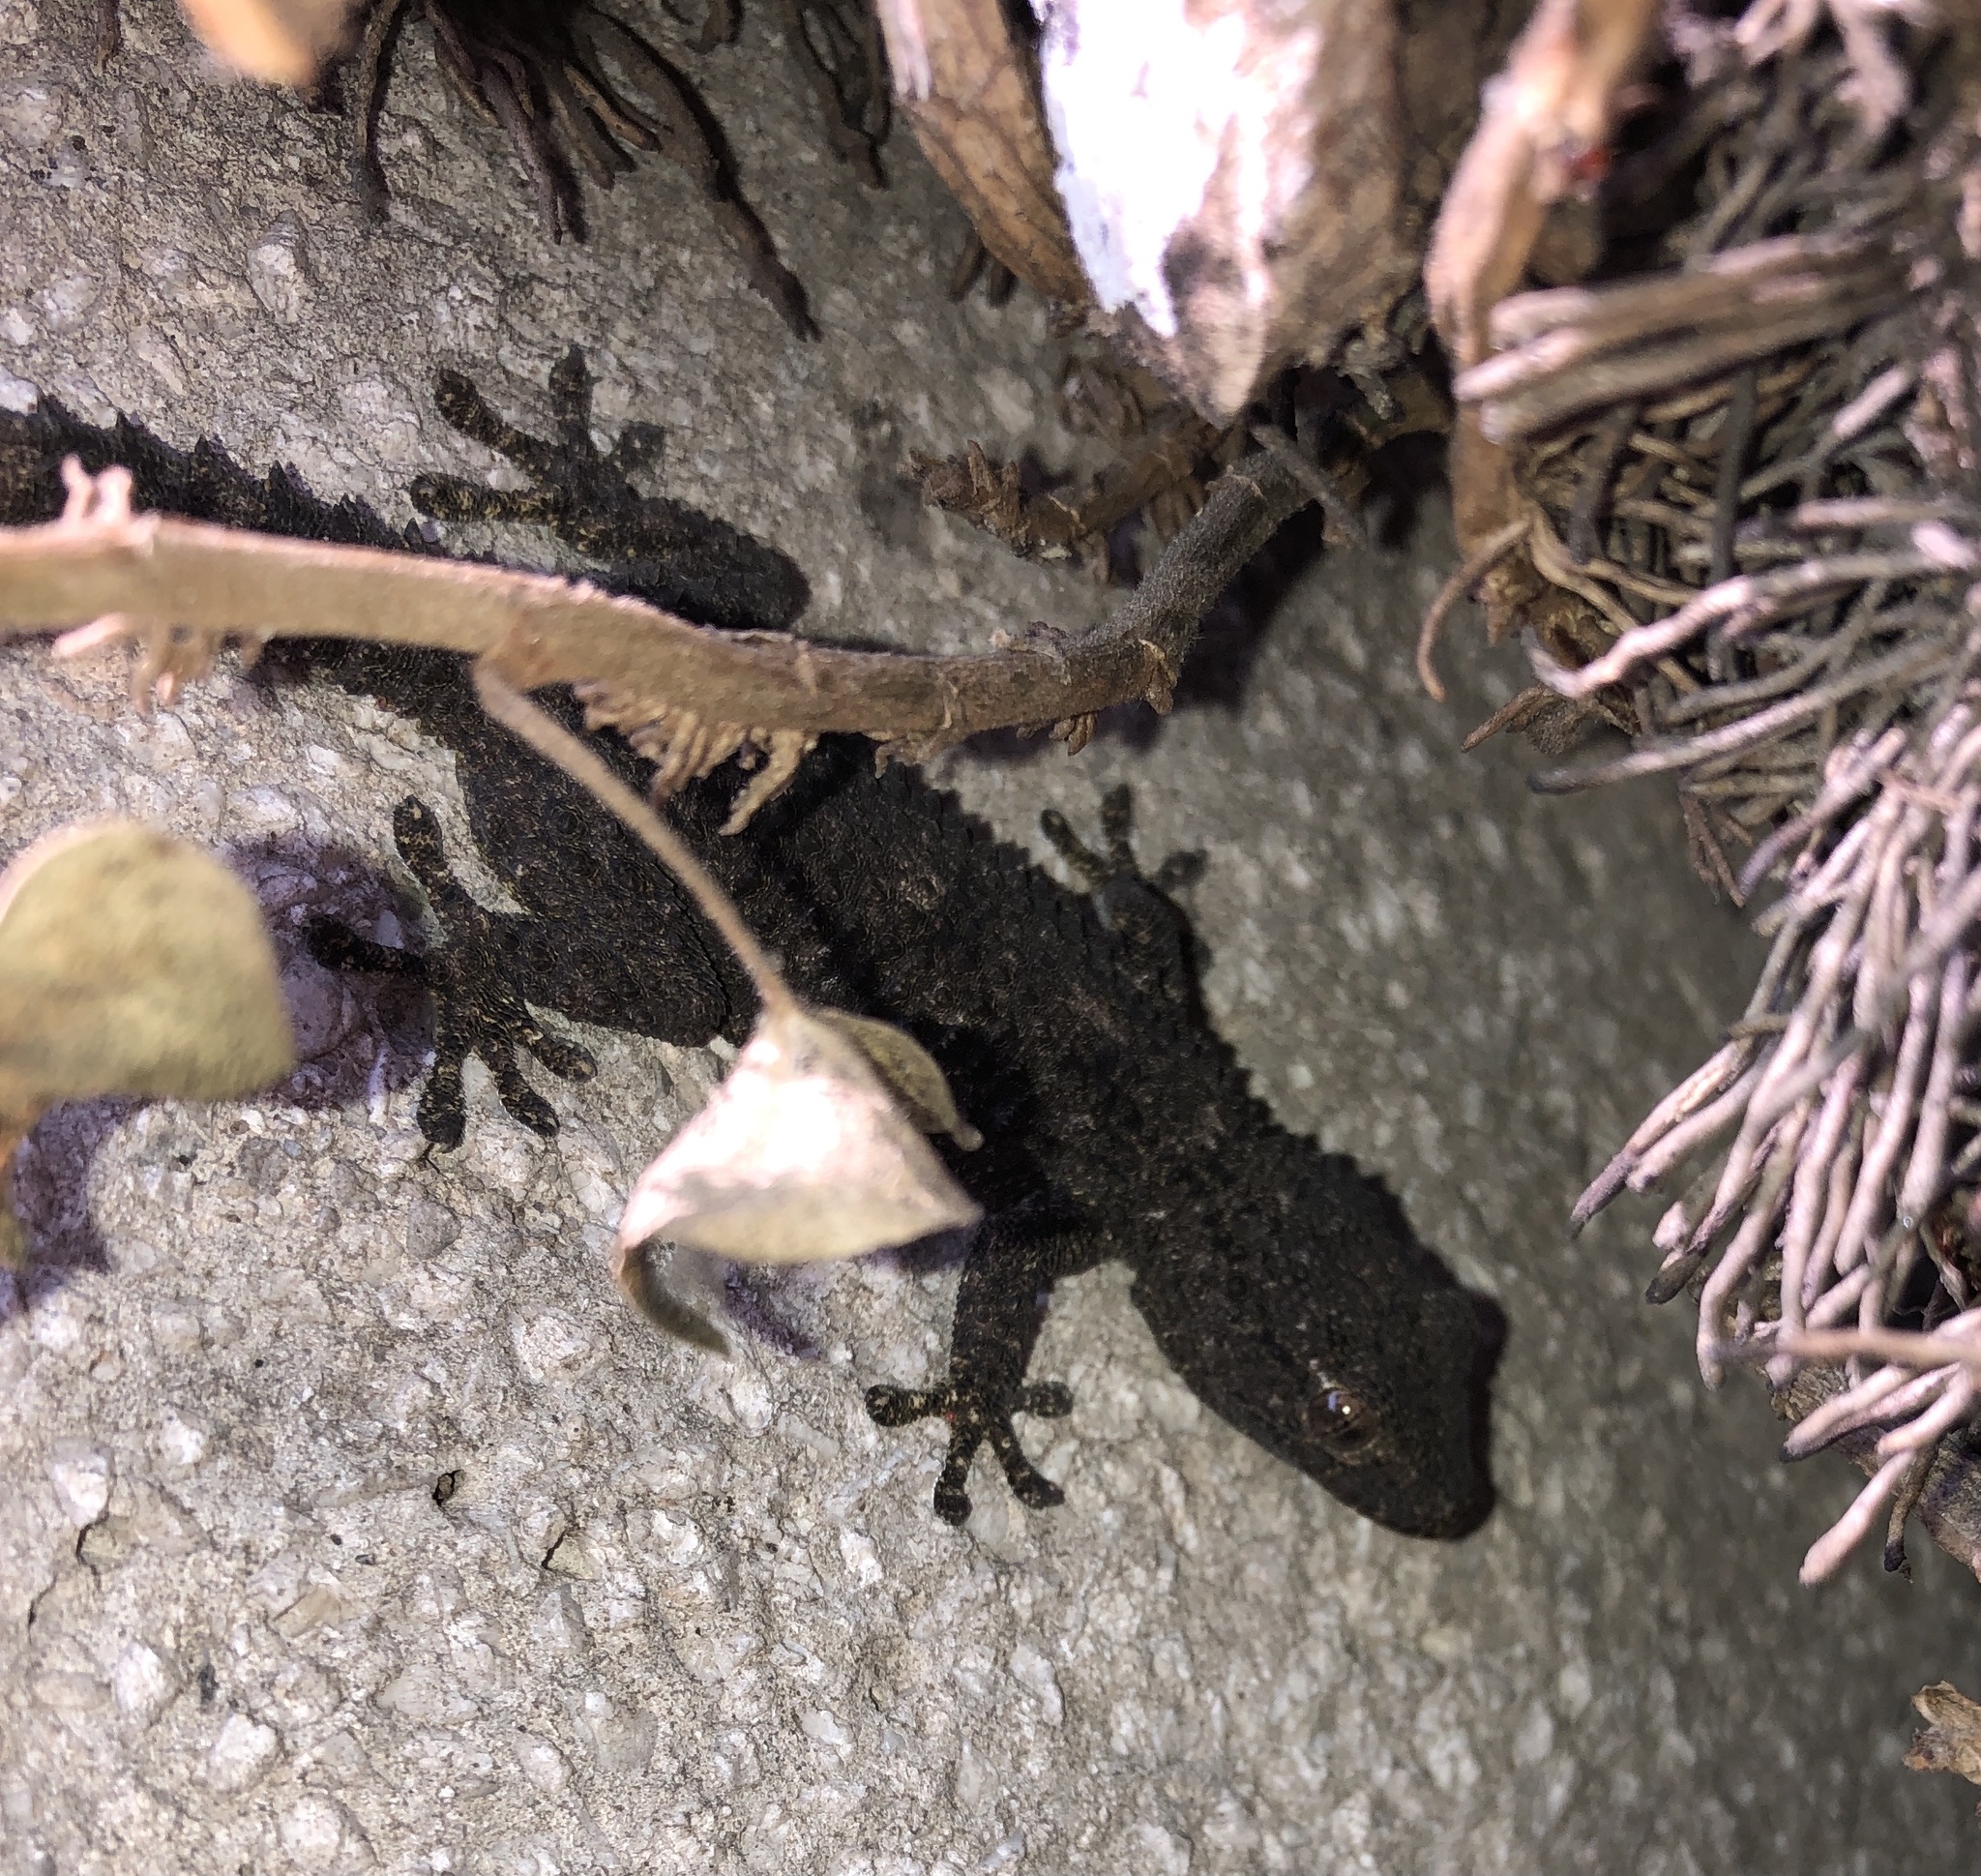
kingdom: Animalia
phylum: Chordata
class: Squamata
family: Phyllodactylidae
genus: Tarentola
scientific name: Tarentola mauritanica
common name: Moorish gecko
